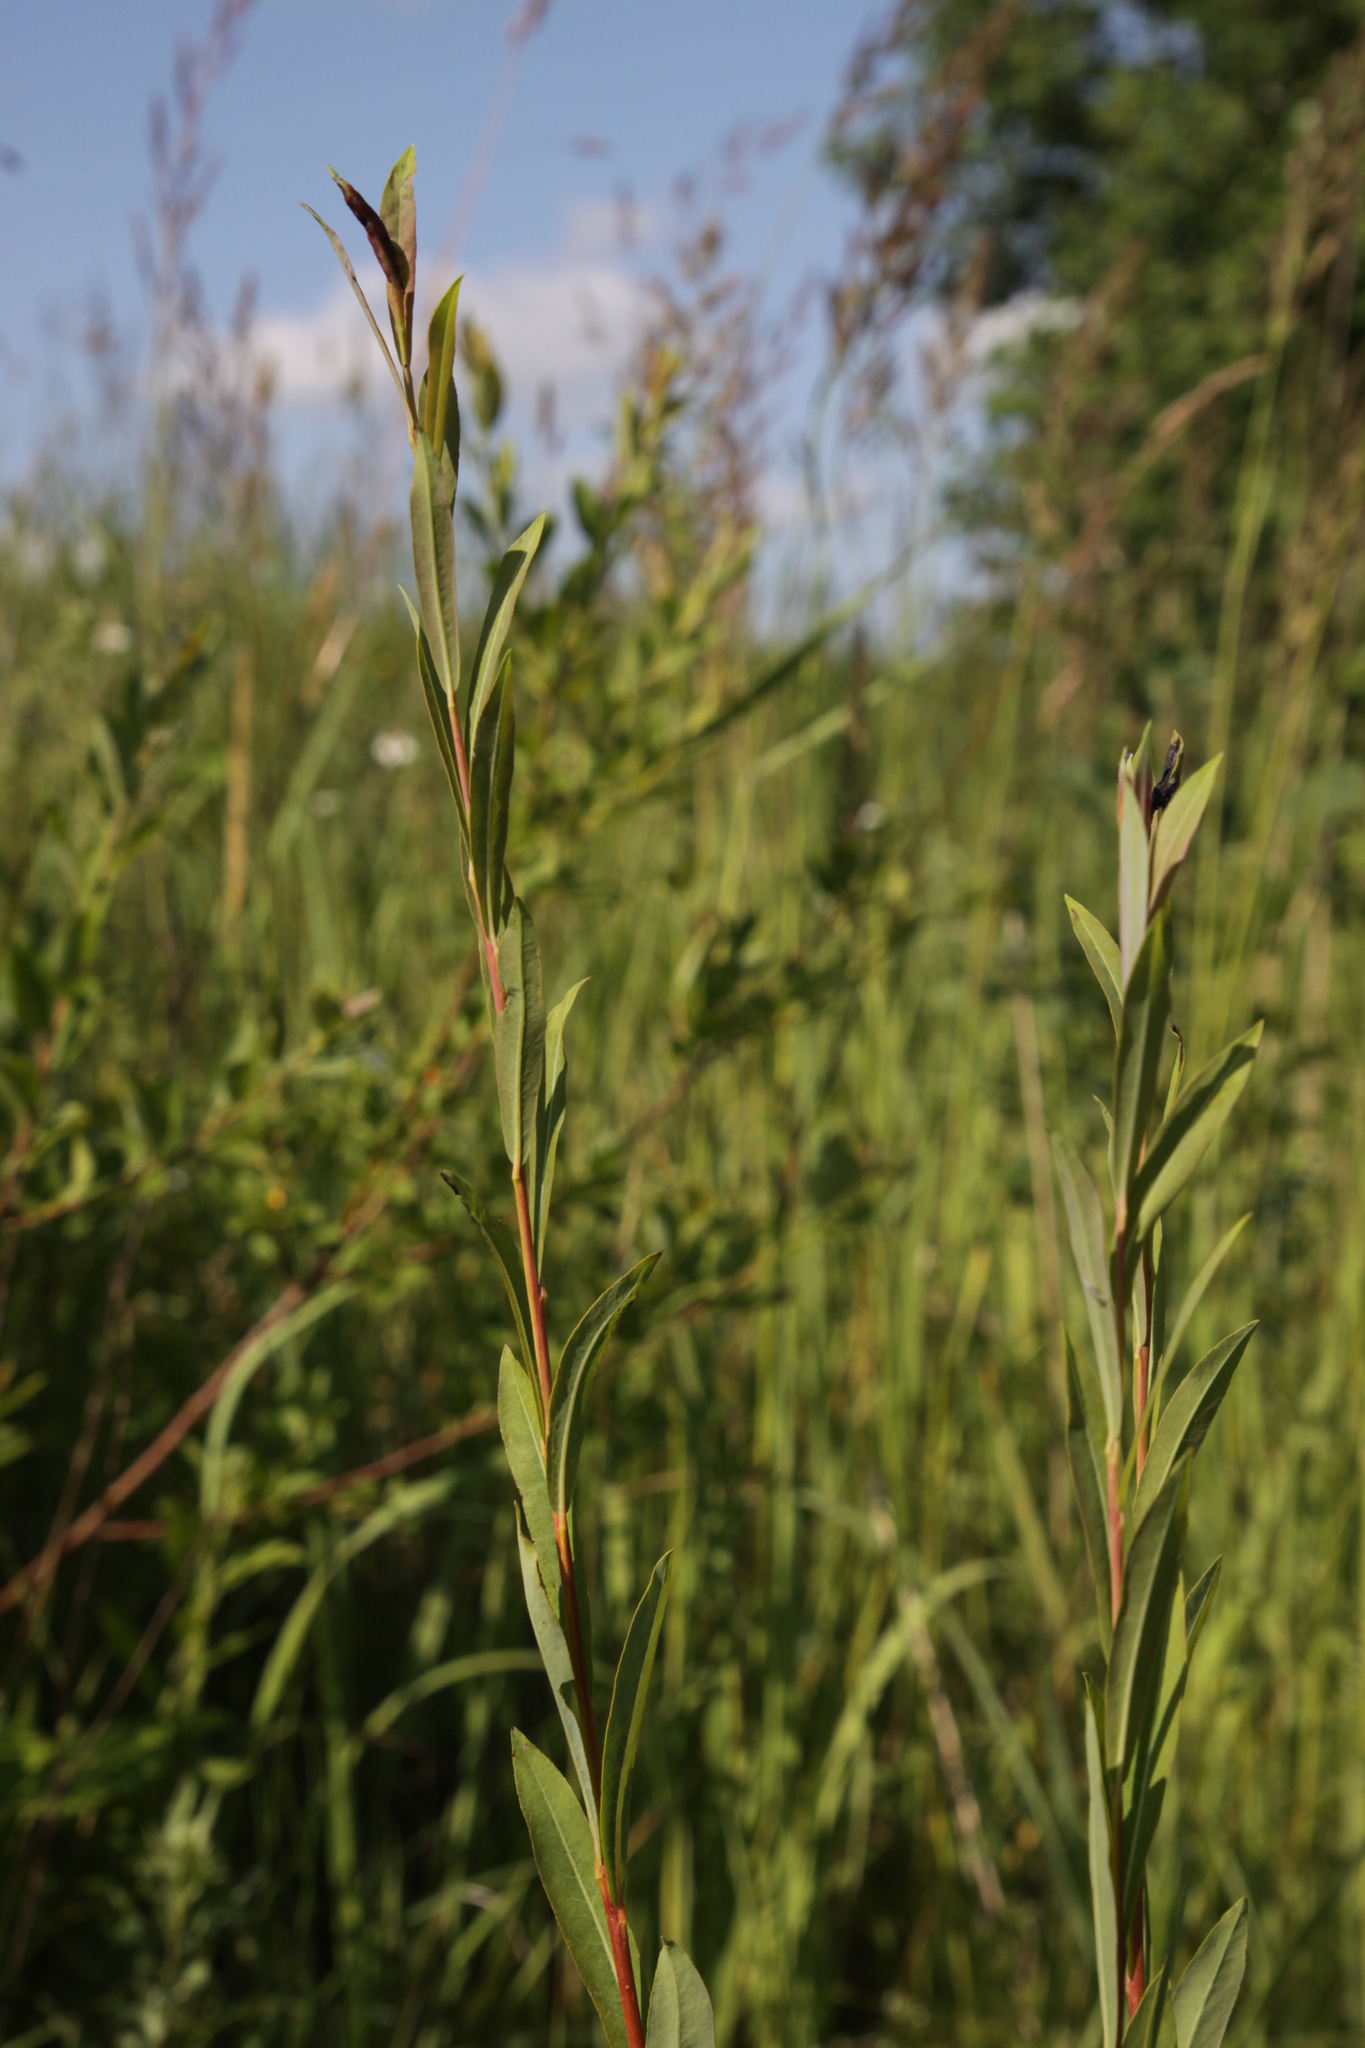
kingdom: Plantae
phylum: Tracheophyta
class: Magnoliopsida
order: Malpighiales
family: Salicaceae
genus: Salix
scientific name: Salix purpurea
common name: Purple willow
